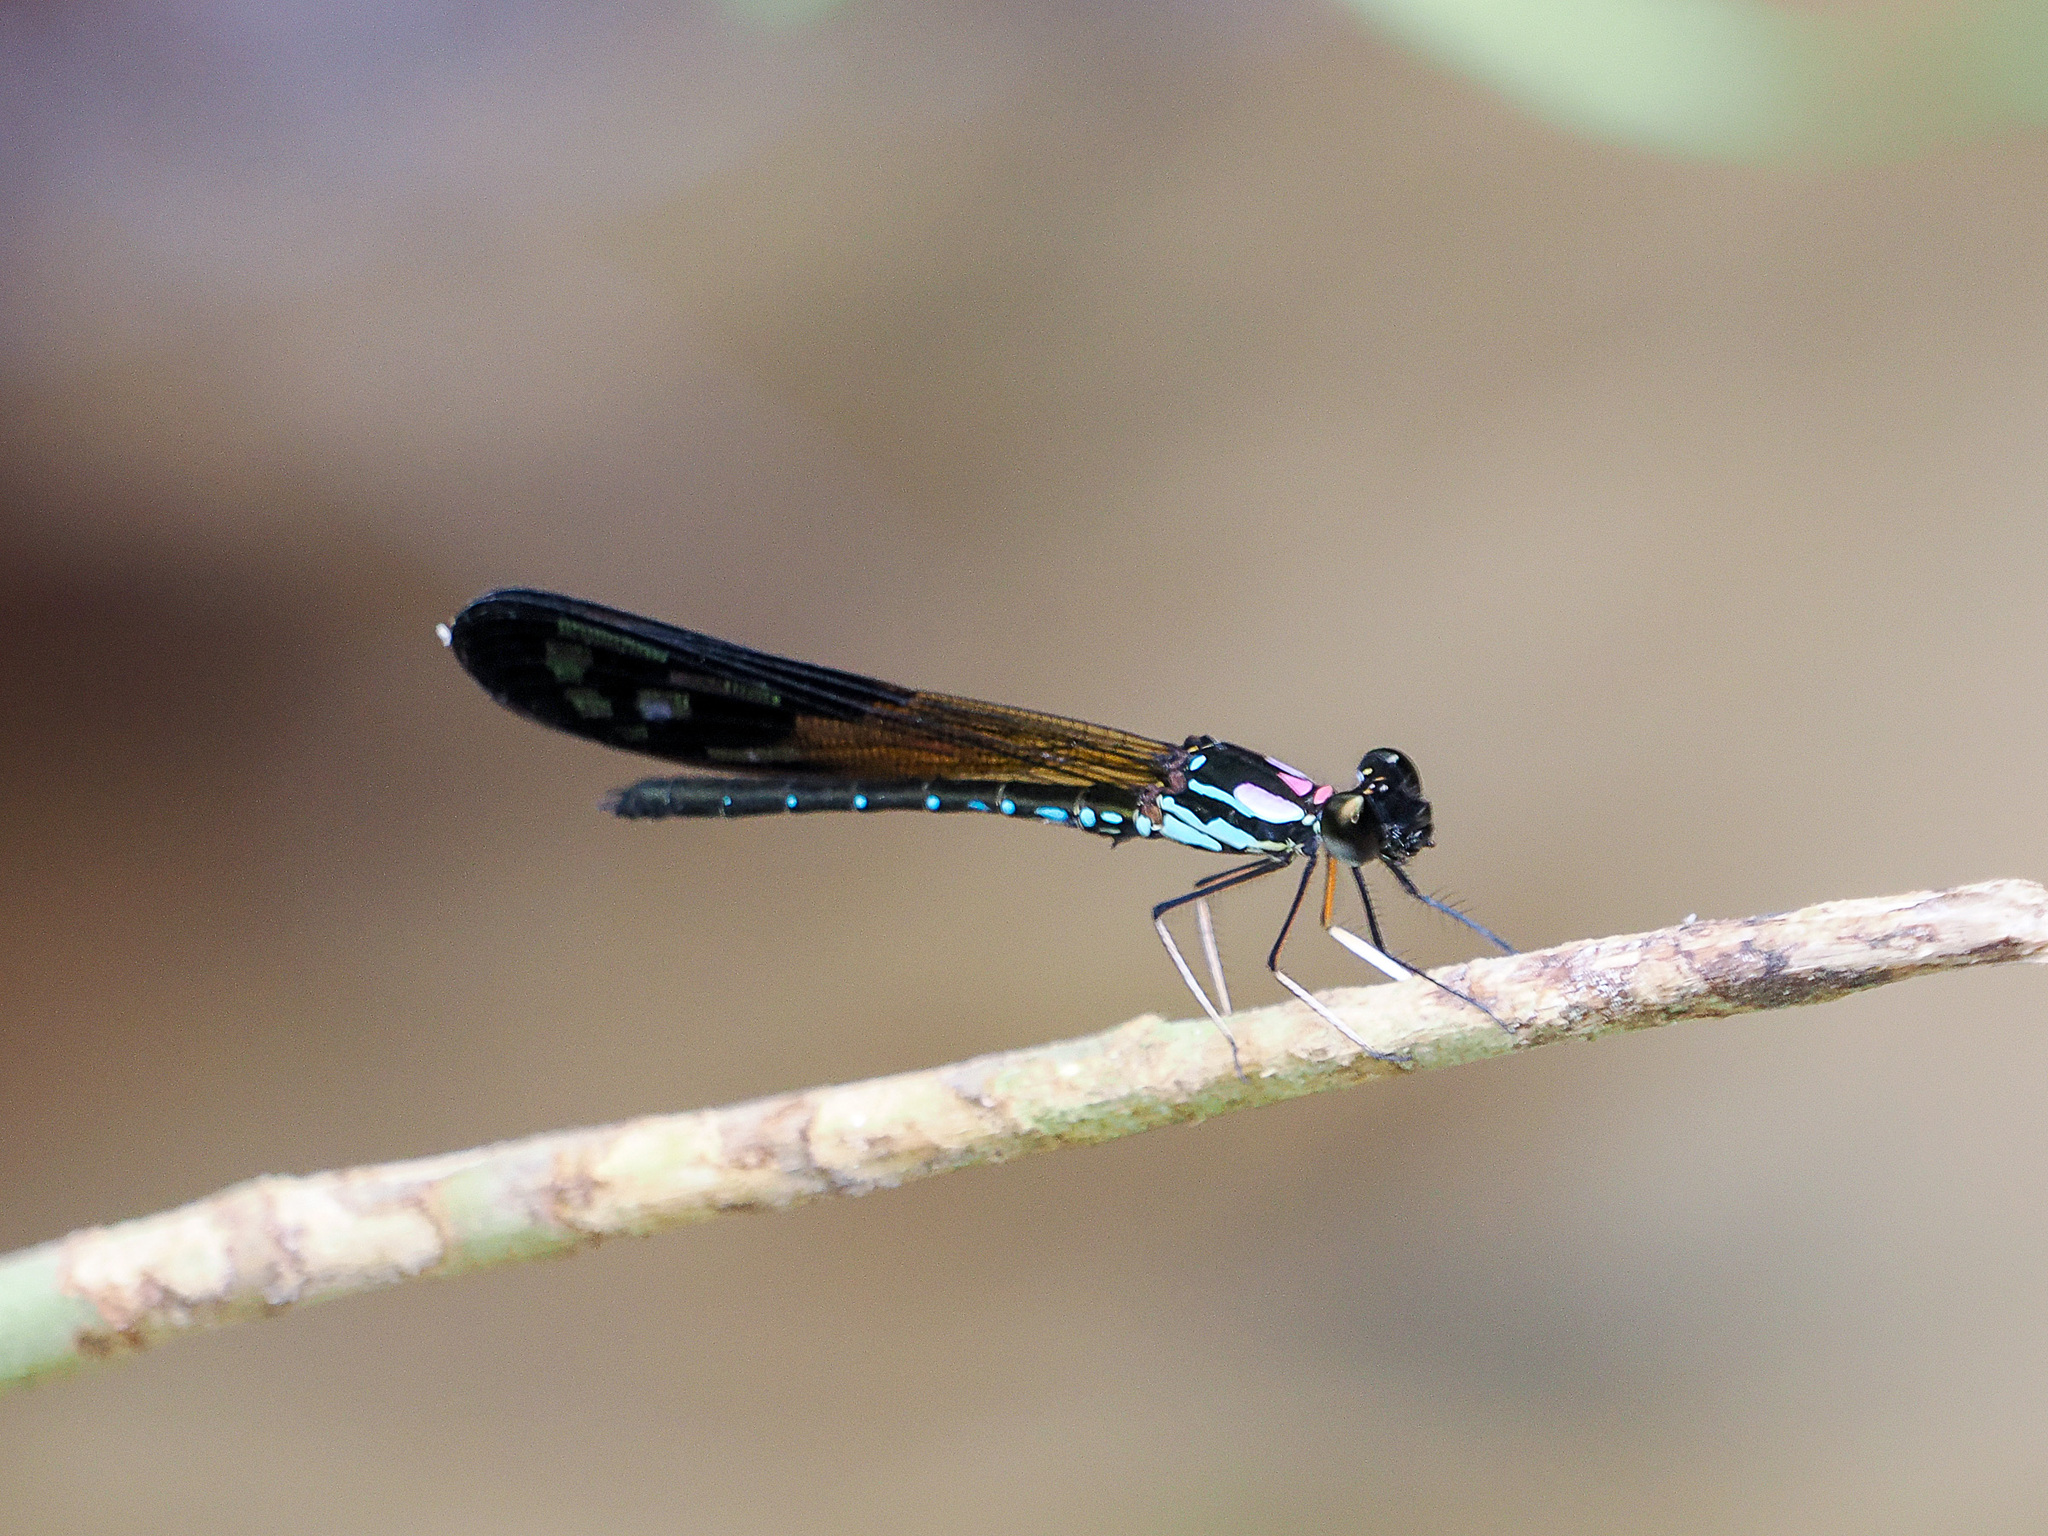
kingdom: Animalia
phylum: Arthropoda
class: Insecta
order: Odonata
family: Chlorocyphidae
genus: Heliocypha
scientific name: Heliocypha angusta
